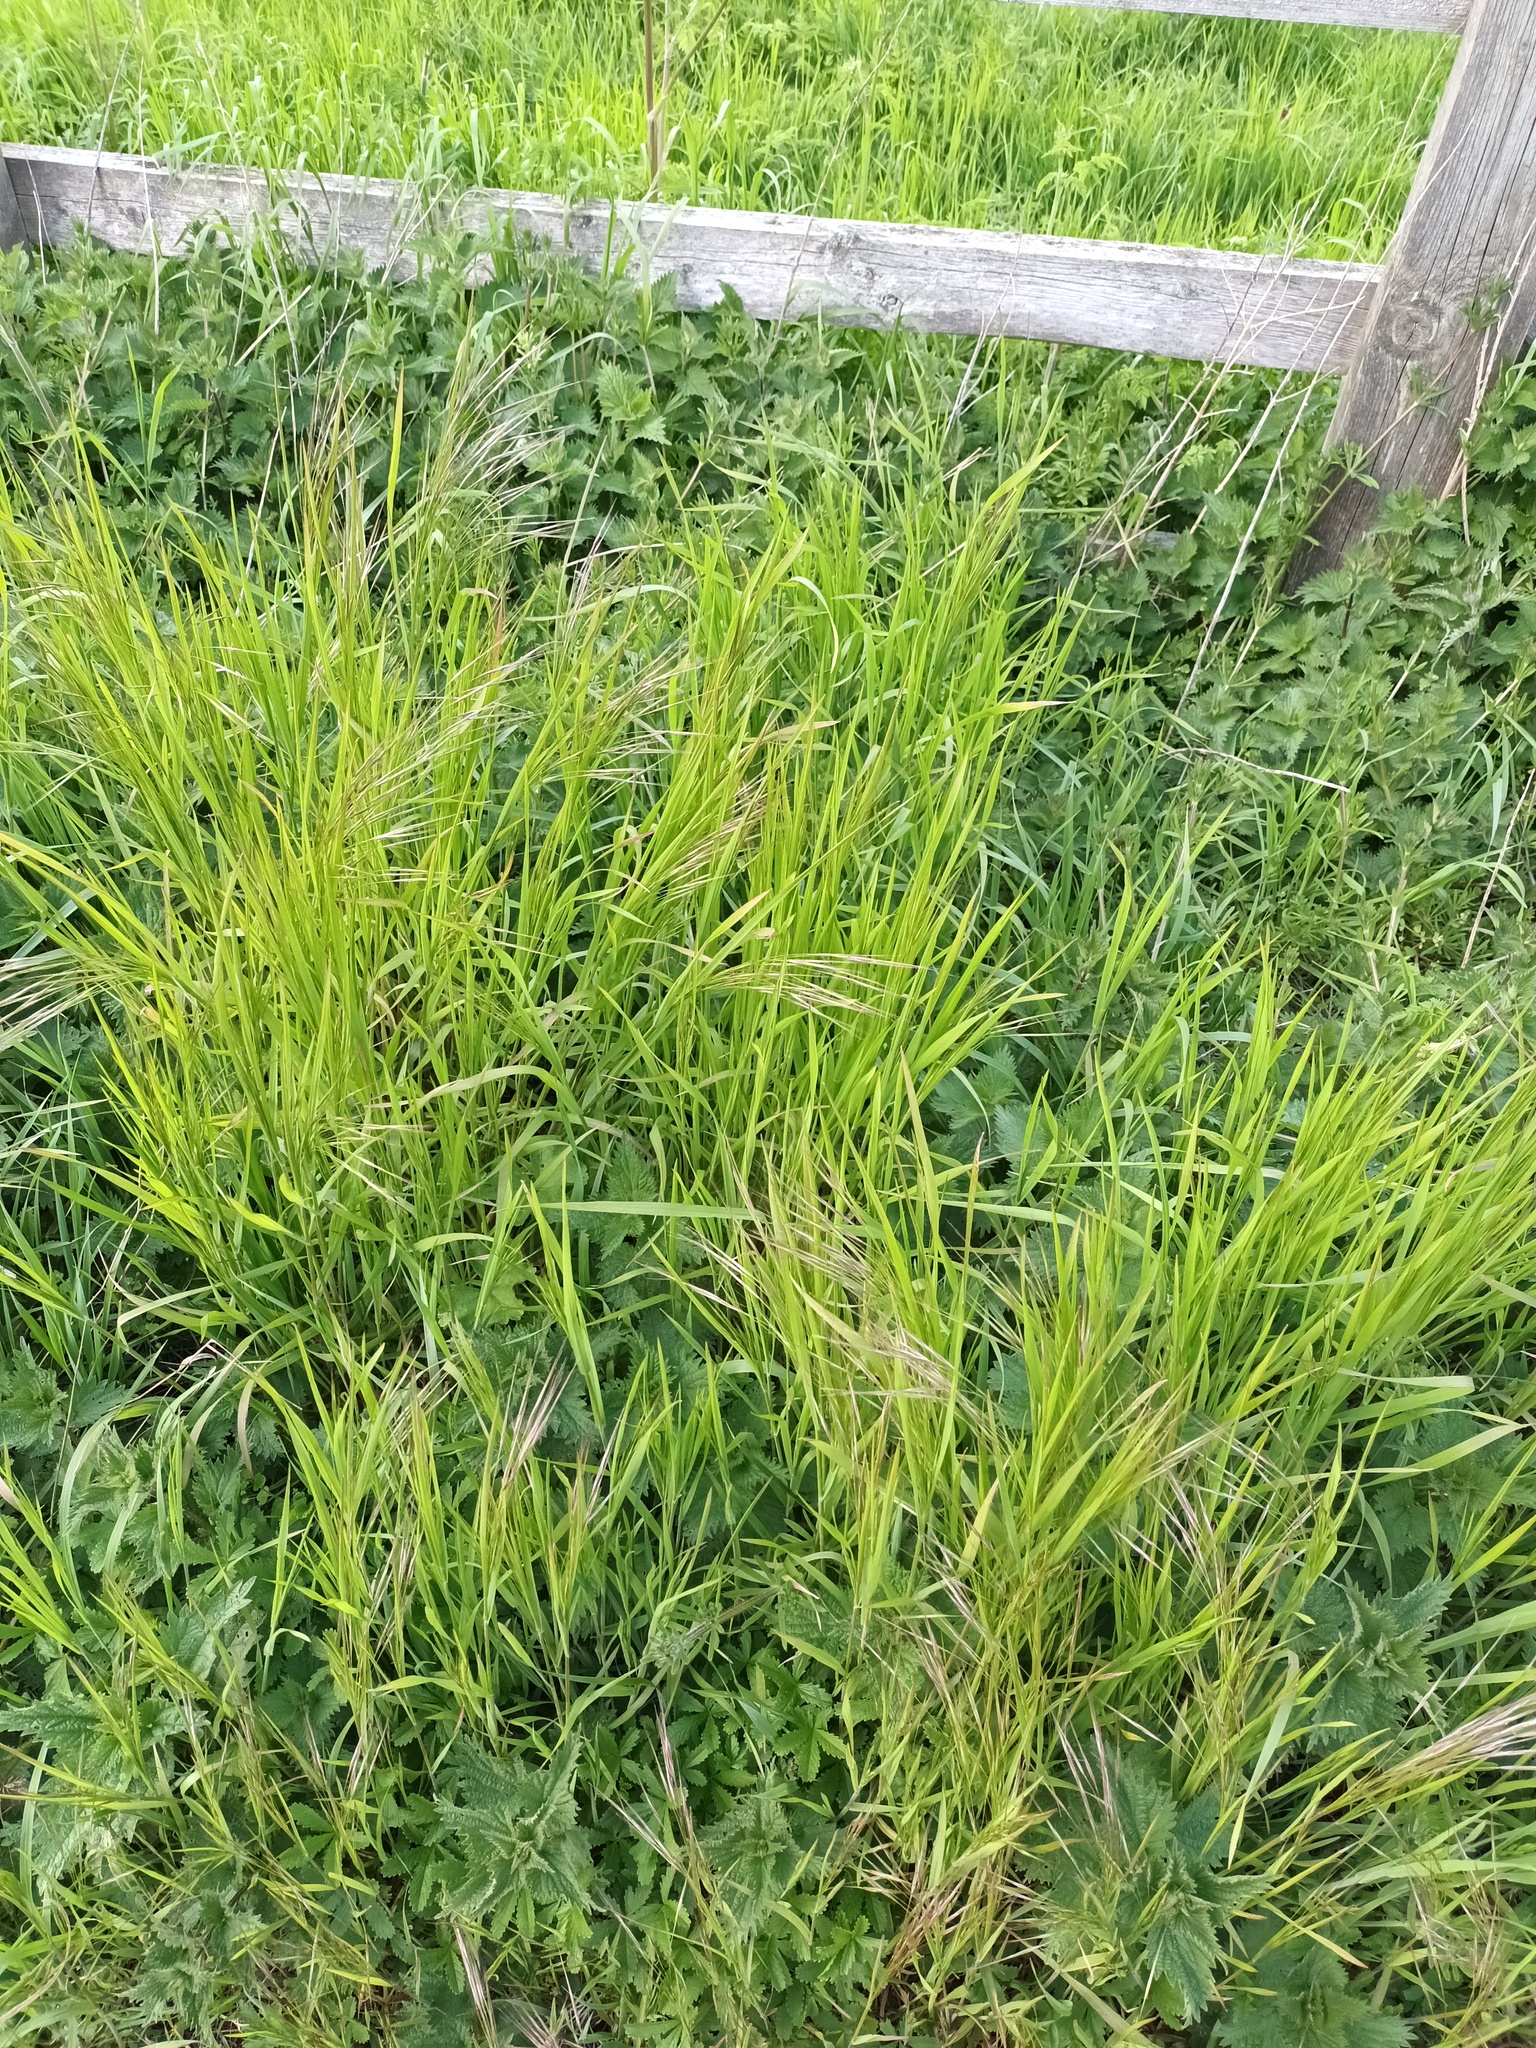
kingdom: Plantae
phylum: Tracheophyta
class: Liliopsida
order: Poales
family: Poaceae
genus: Bromus
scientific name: Bromus sterilis
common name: Poverty brome
